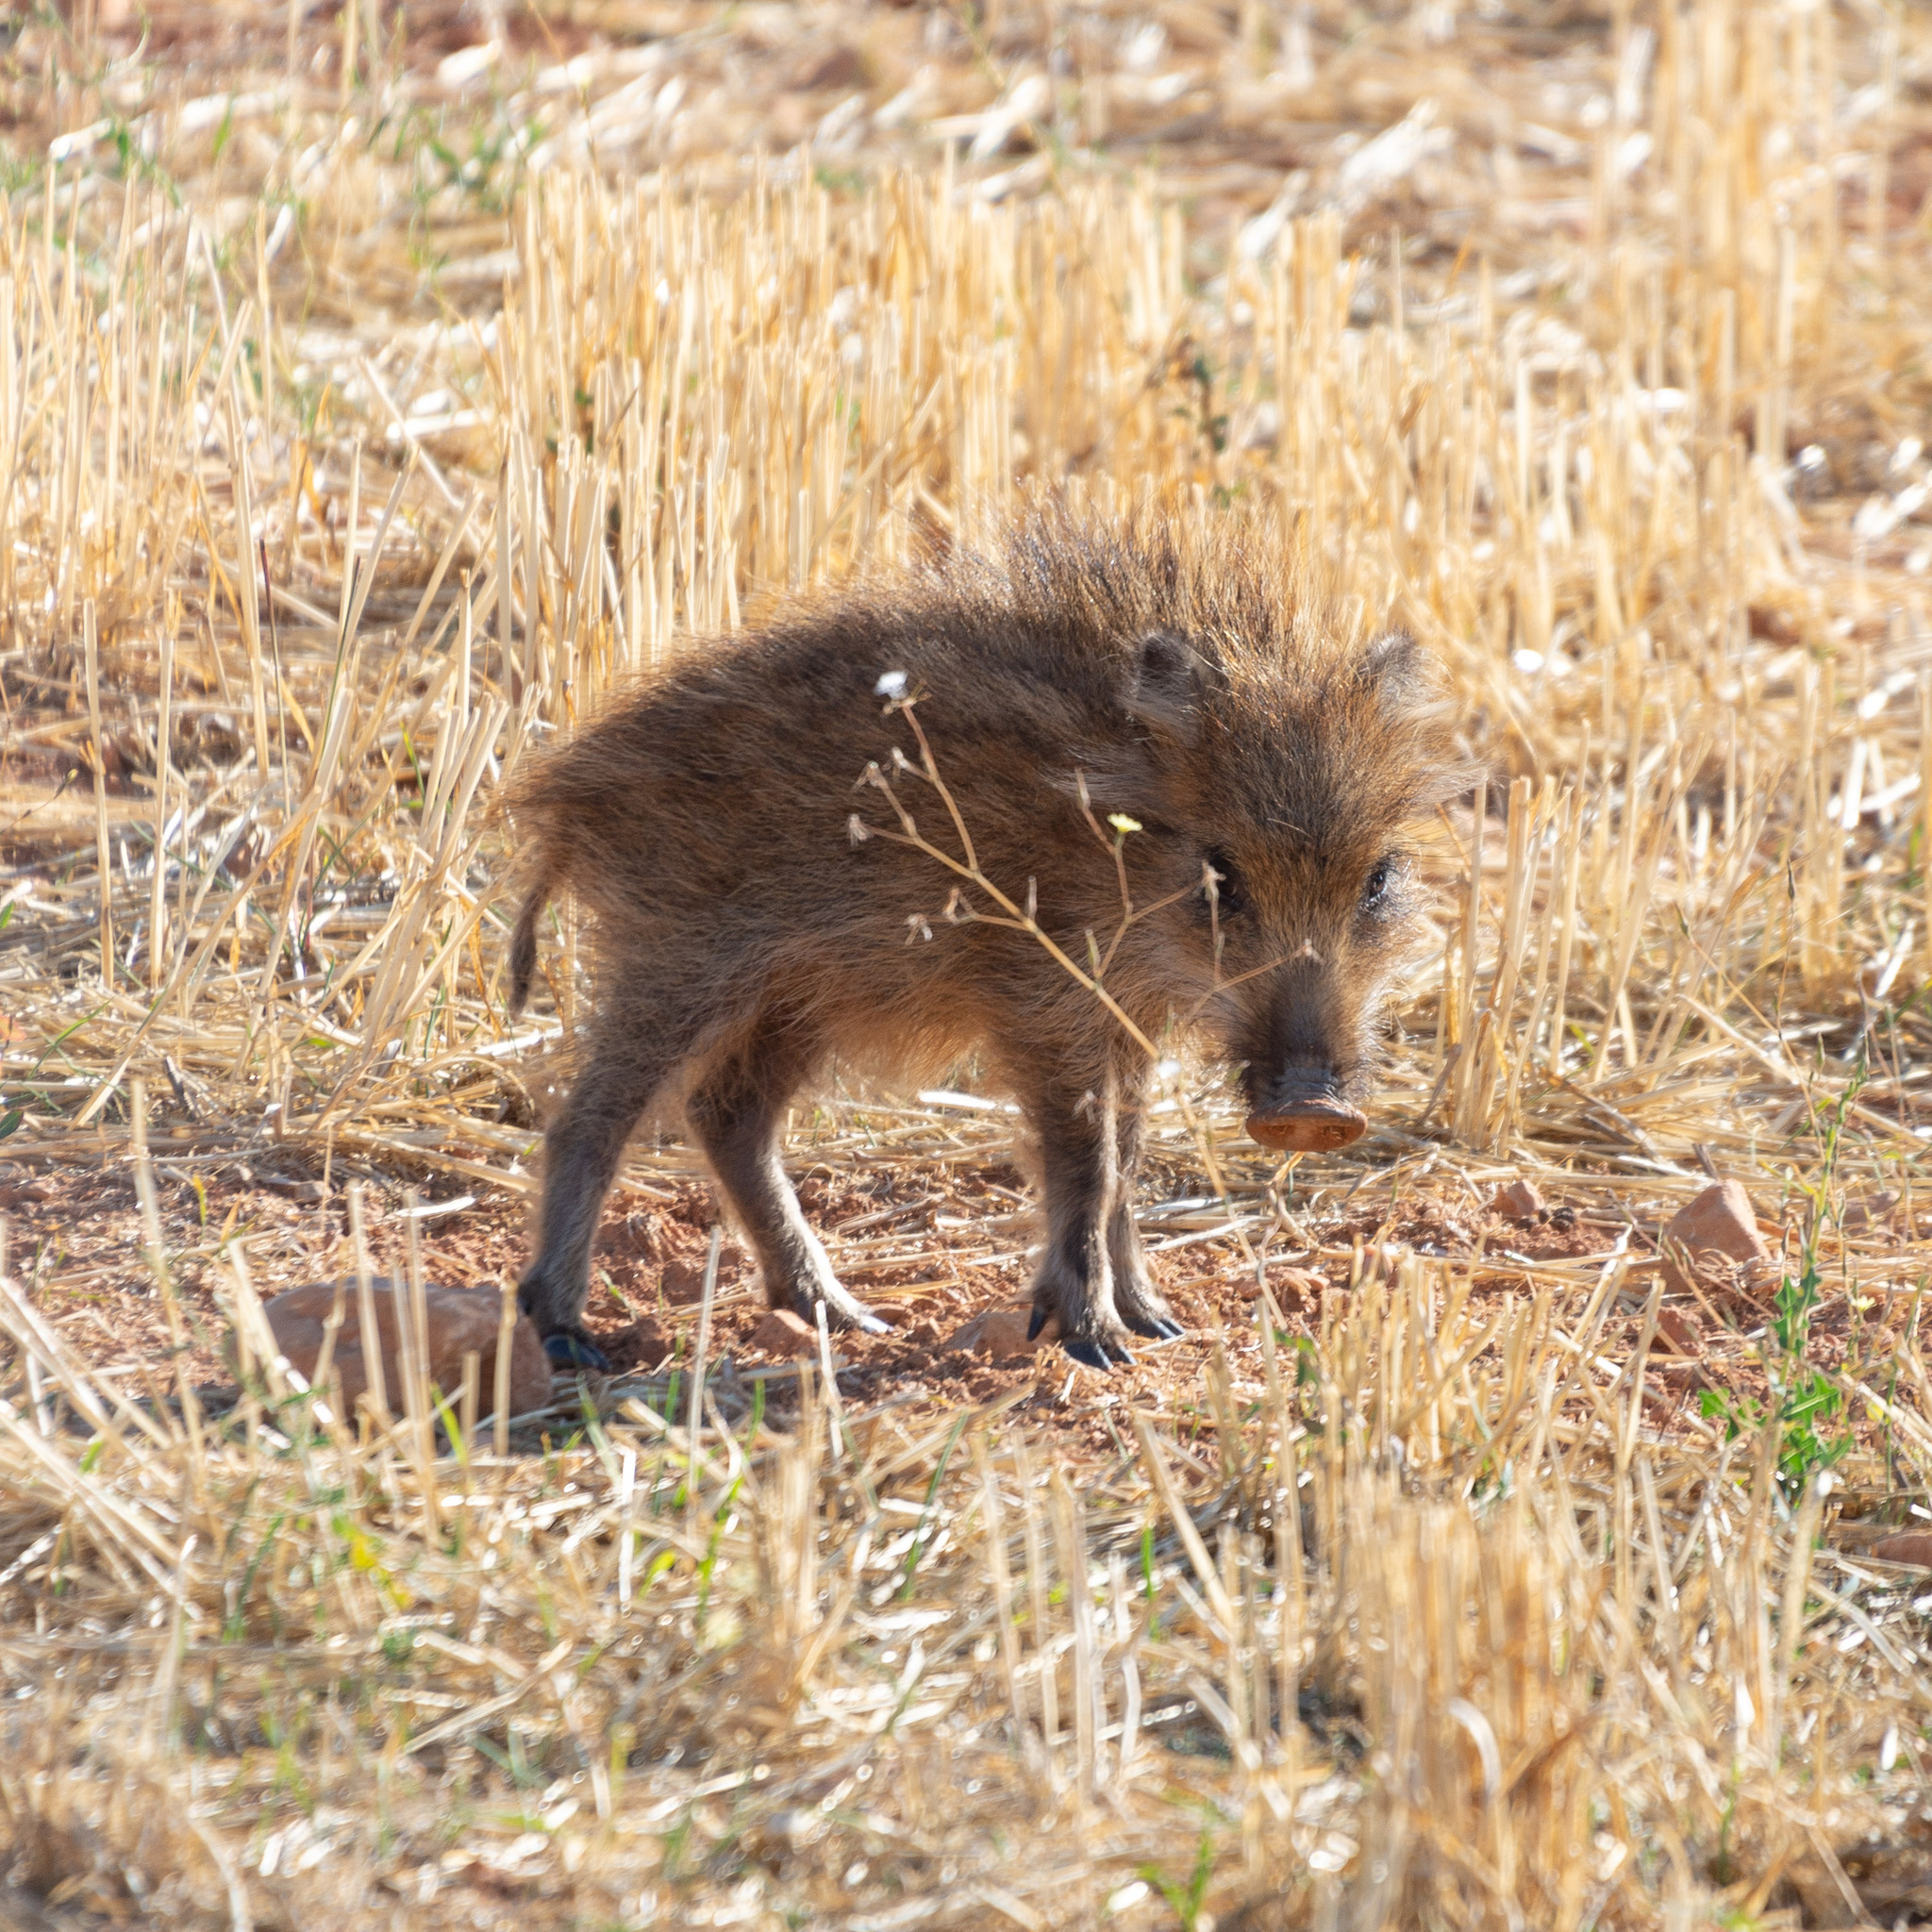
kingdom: Animalia
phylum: Chordata
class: Mammalia
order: Artiodactyla
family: Suidae
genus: Sus
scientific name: Sus scrofa
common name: Wild boar
